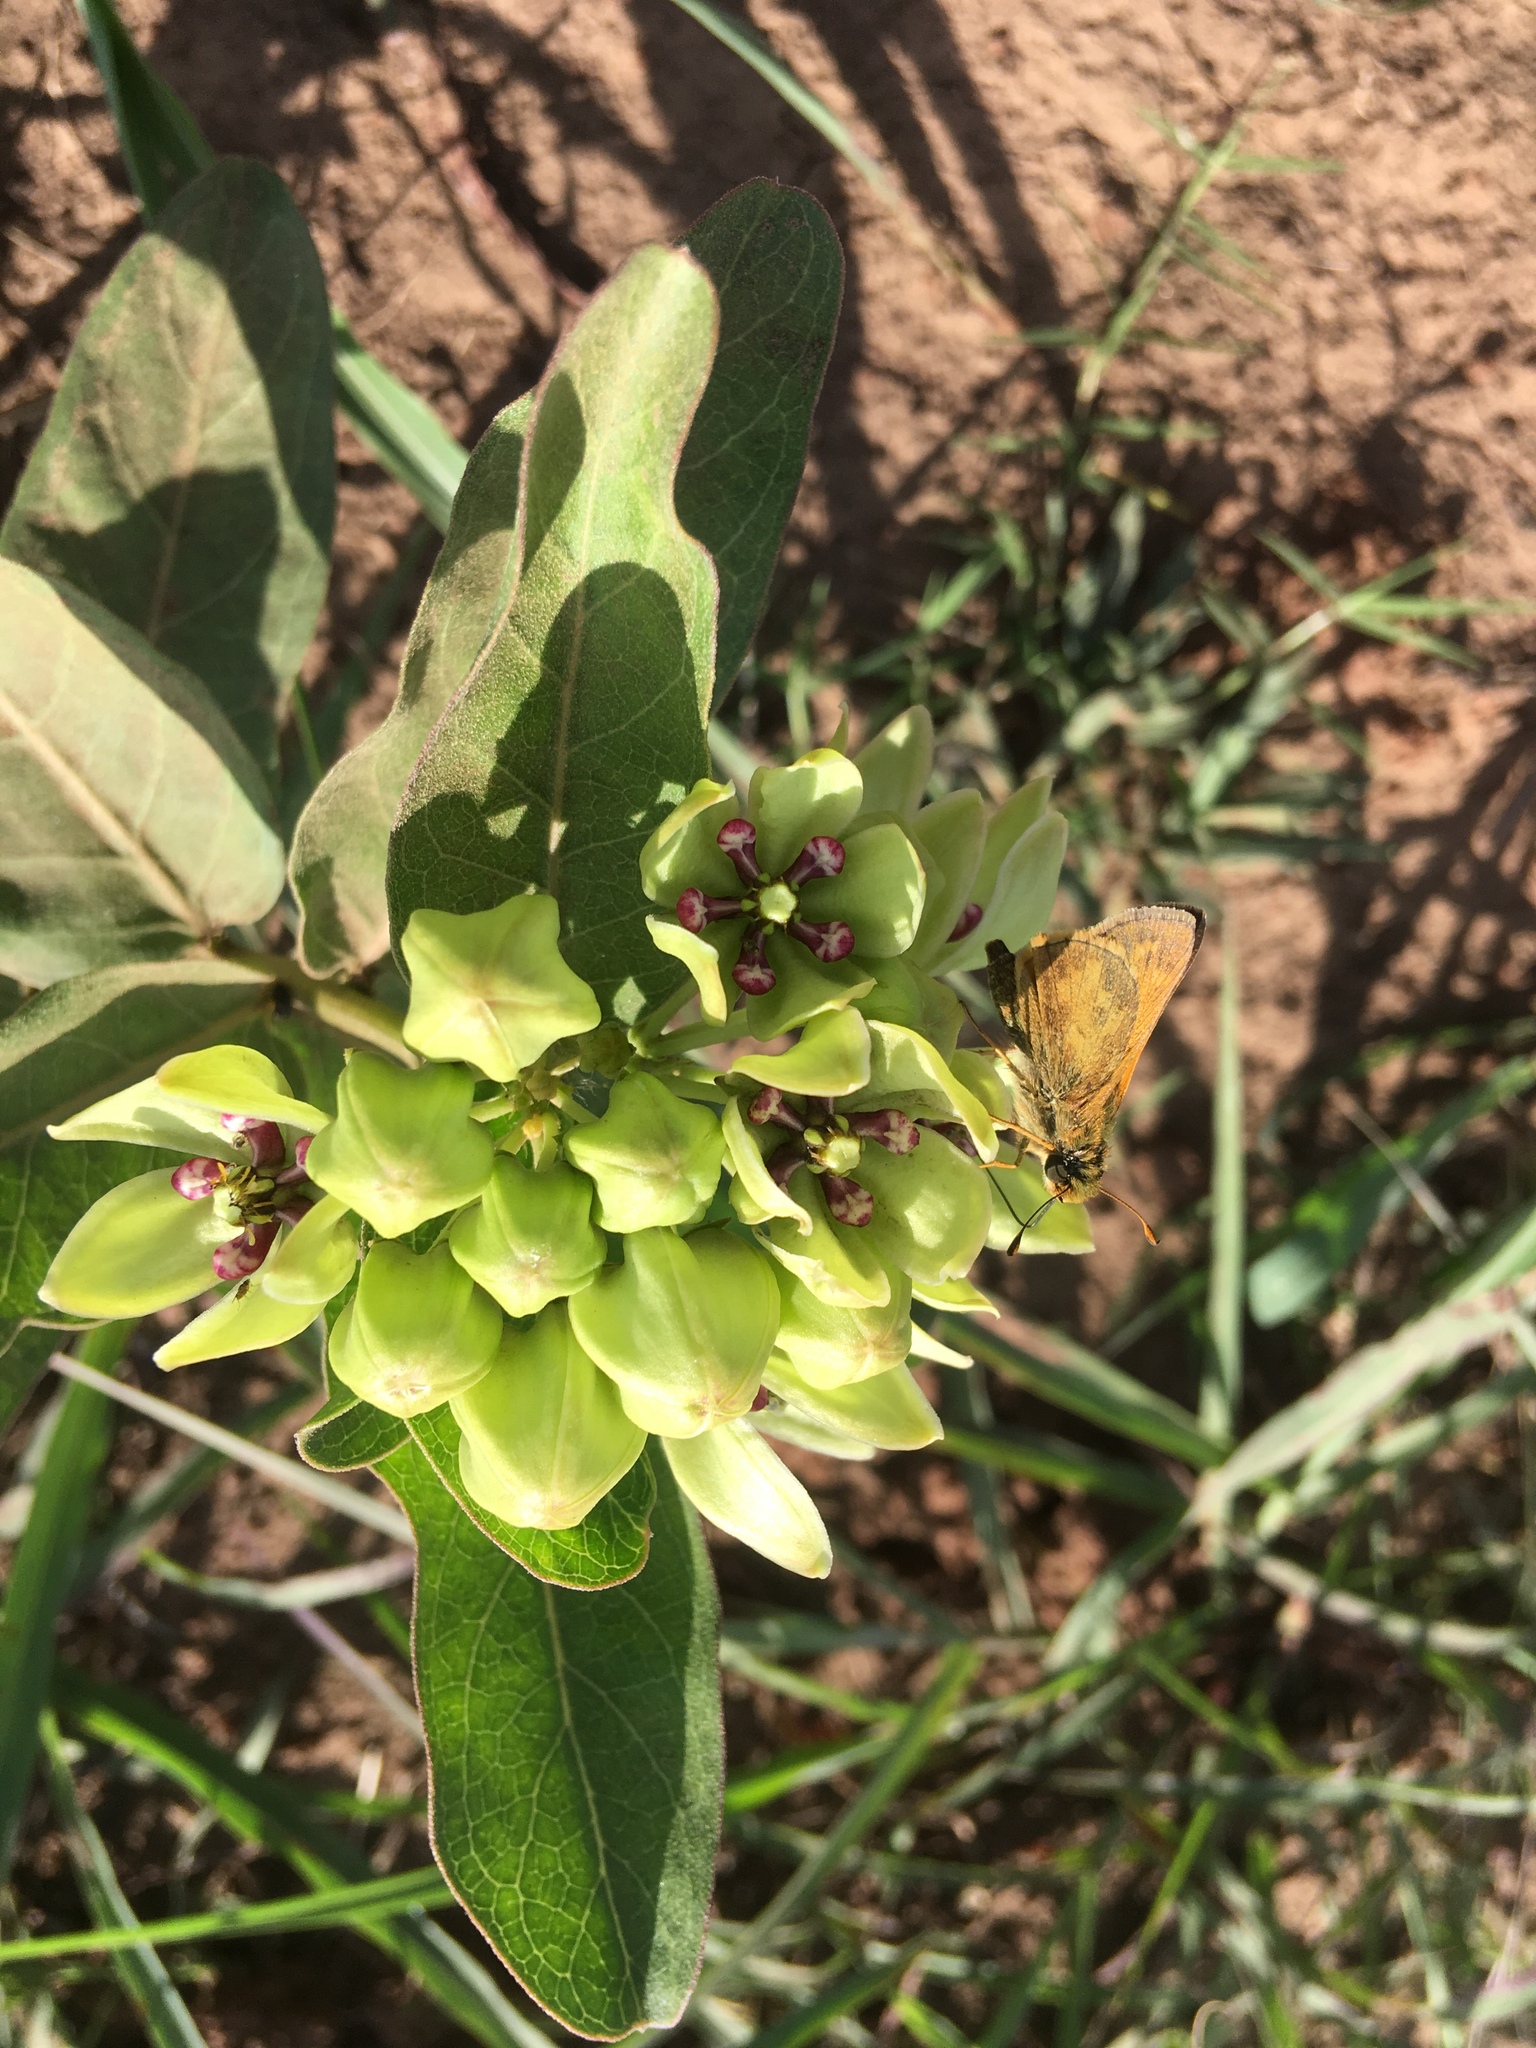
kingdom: Animalia
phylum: Arthropoda
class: Insecta
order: Lepidoptera
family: Hesperiidae
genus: Atalopedes
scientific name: Atalopedes
